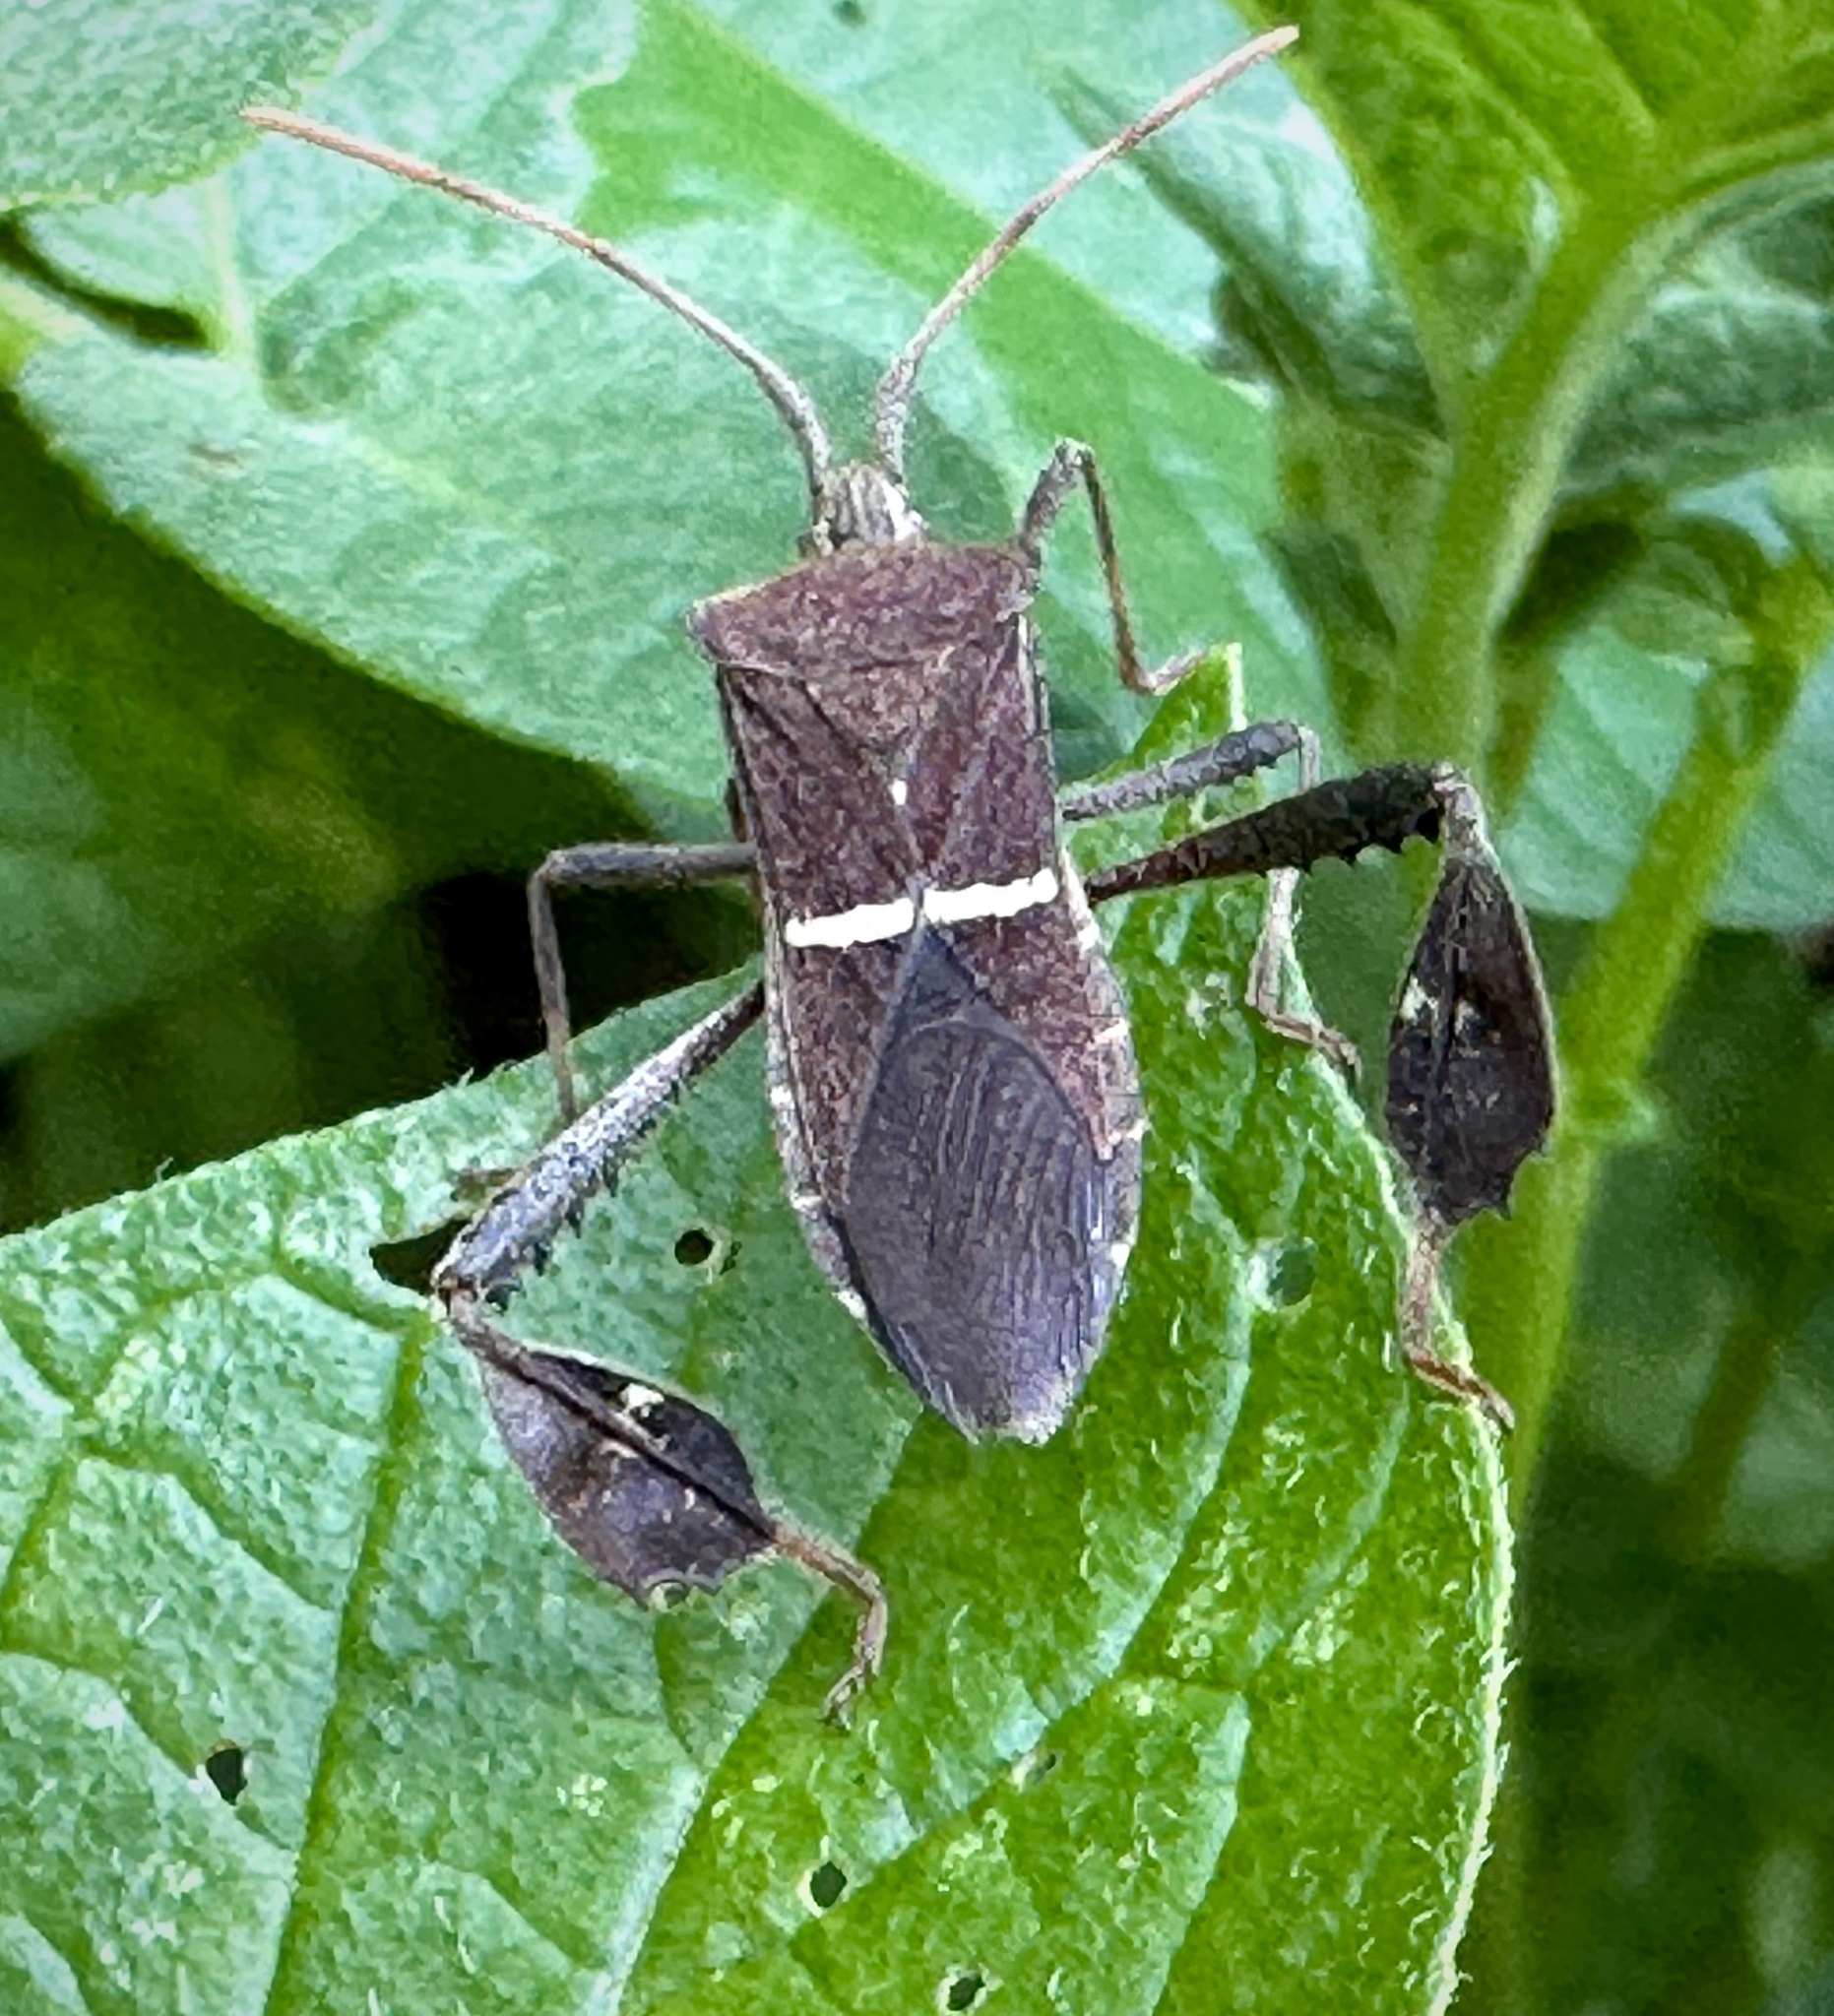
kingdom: Animalia
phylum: Arthropoda
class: Insecta
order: Hemiptera
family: Coreidae
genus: Leptoglossus
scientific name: Leptoglossus phyllopus
